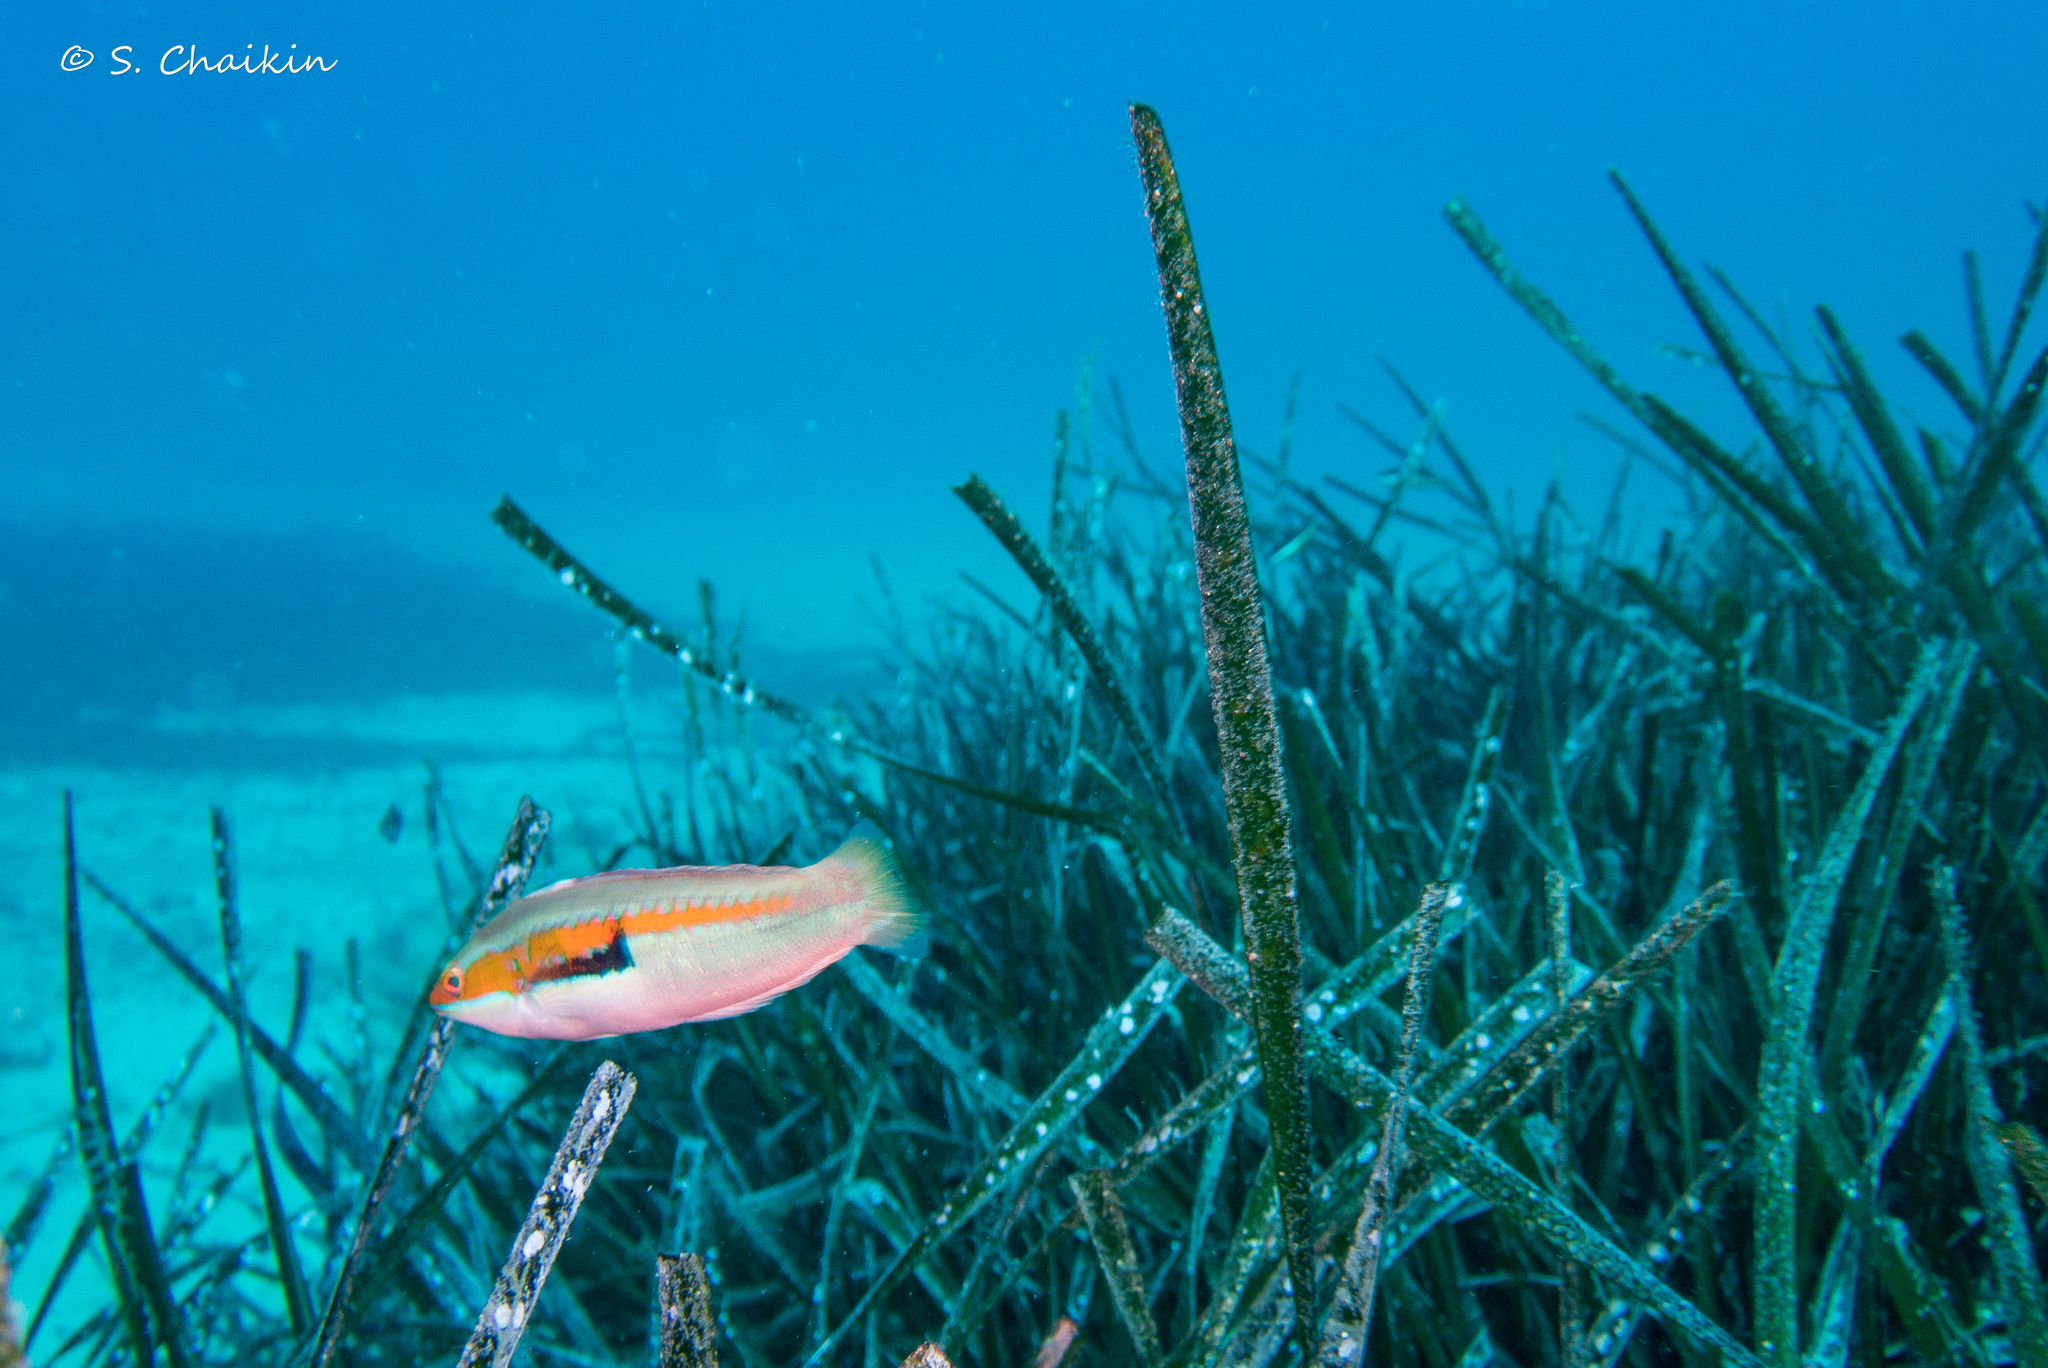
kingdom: Animalia
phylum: Chordata
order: Perciformes
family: Labridae
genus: Coris
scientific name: Coris julis
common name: Rainbow wrasse
